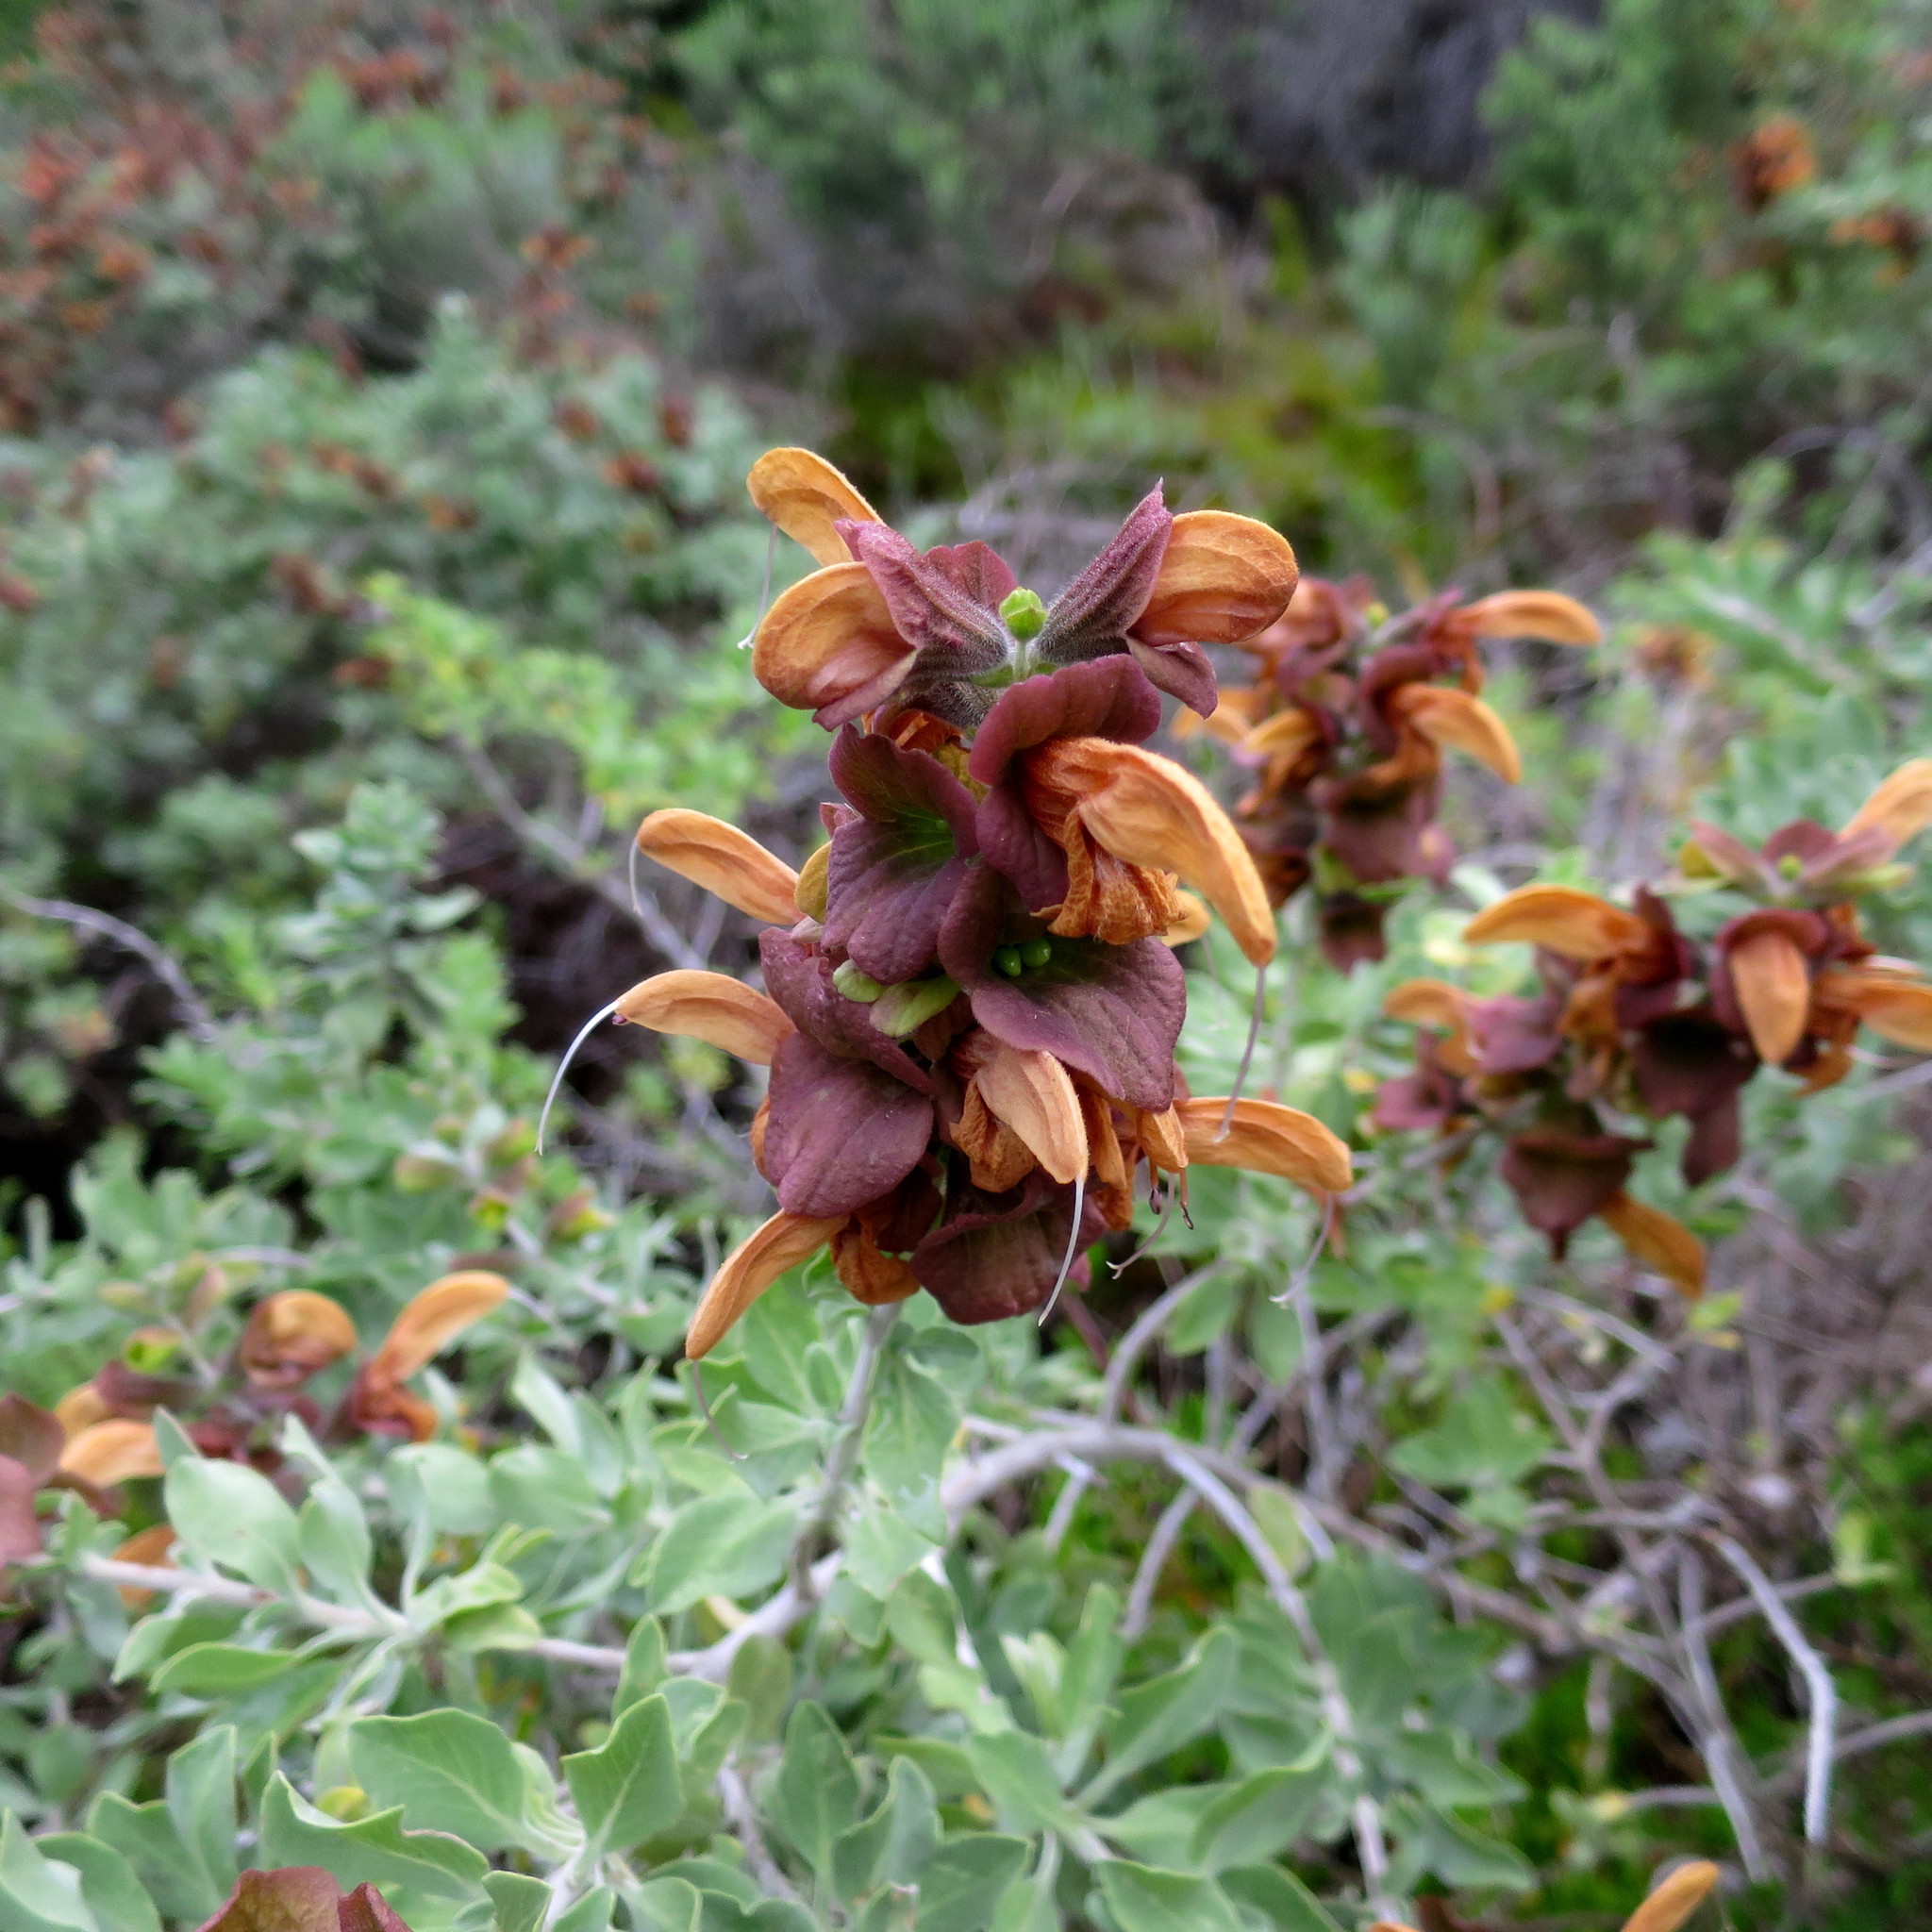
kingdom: Plantae
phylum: Tracheophyta
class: Magnoliopsida
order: Lamiales
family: Lamiaceae
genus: Salvia
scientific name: Salvia aurea
